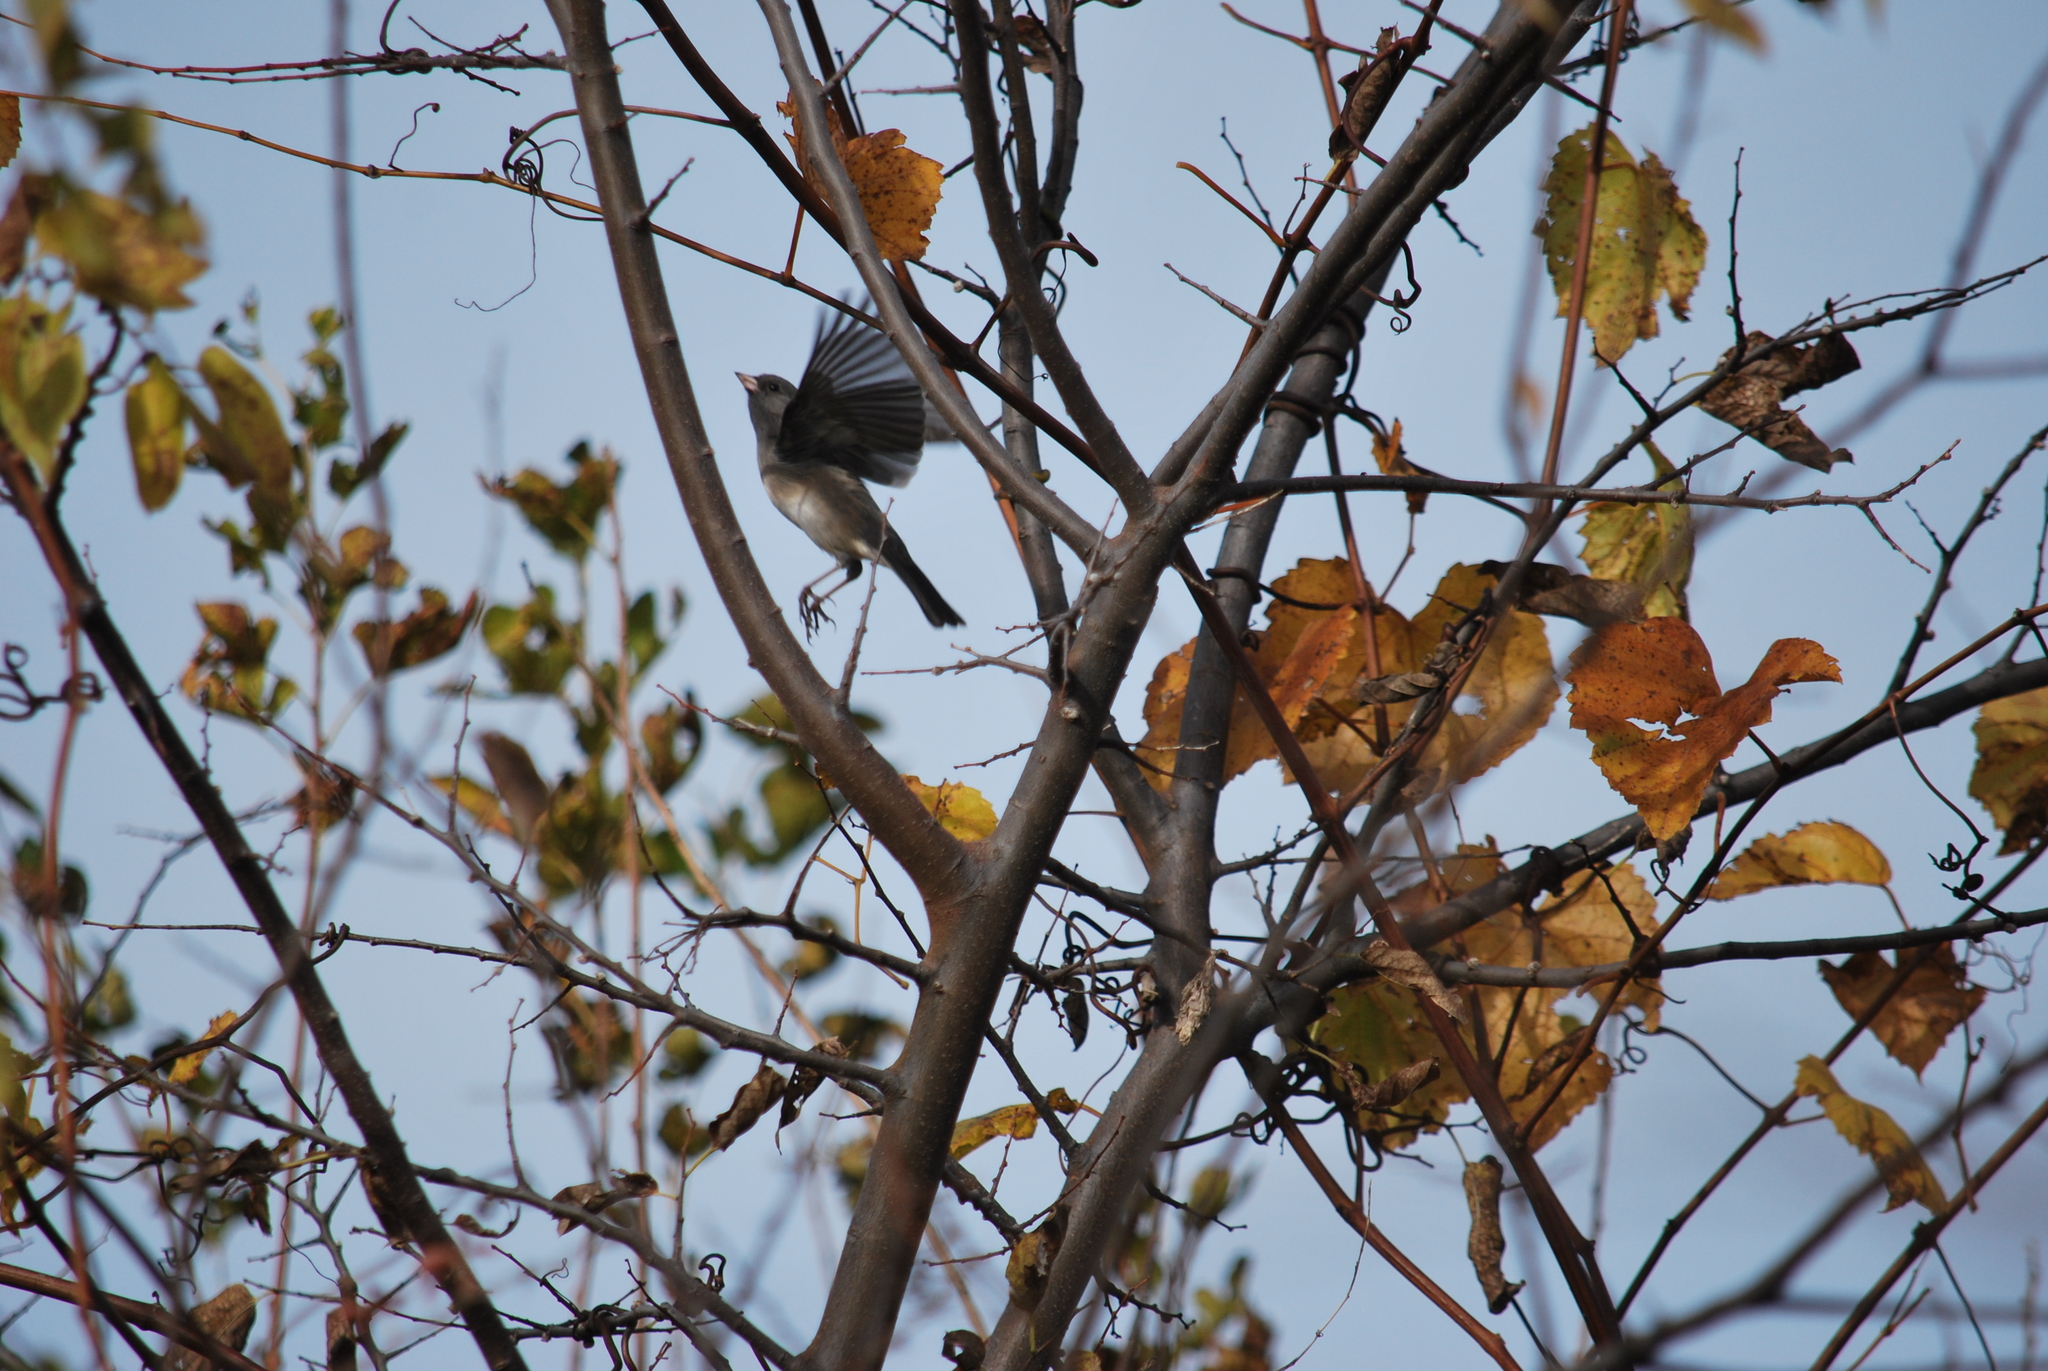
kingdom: Animalia
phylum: Chordata
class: Aves
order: Passeriformes
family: Passerellidae
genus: Junco
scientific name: Junco hyemalis
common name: Dark-eyed junco
